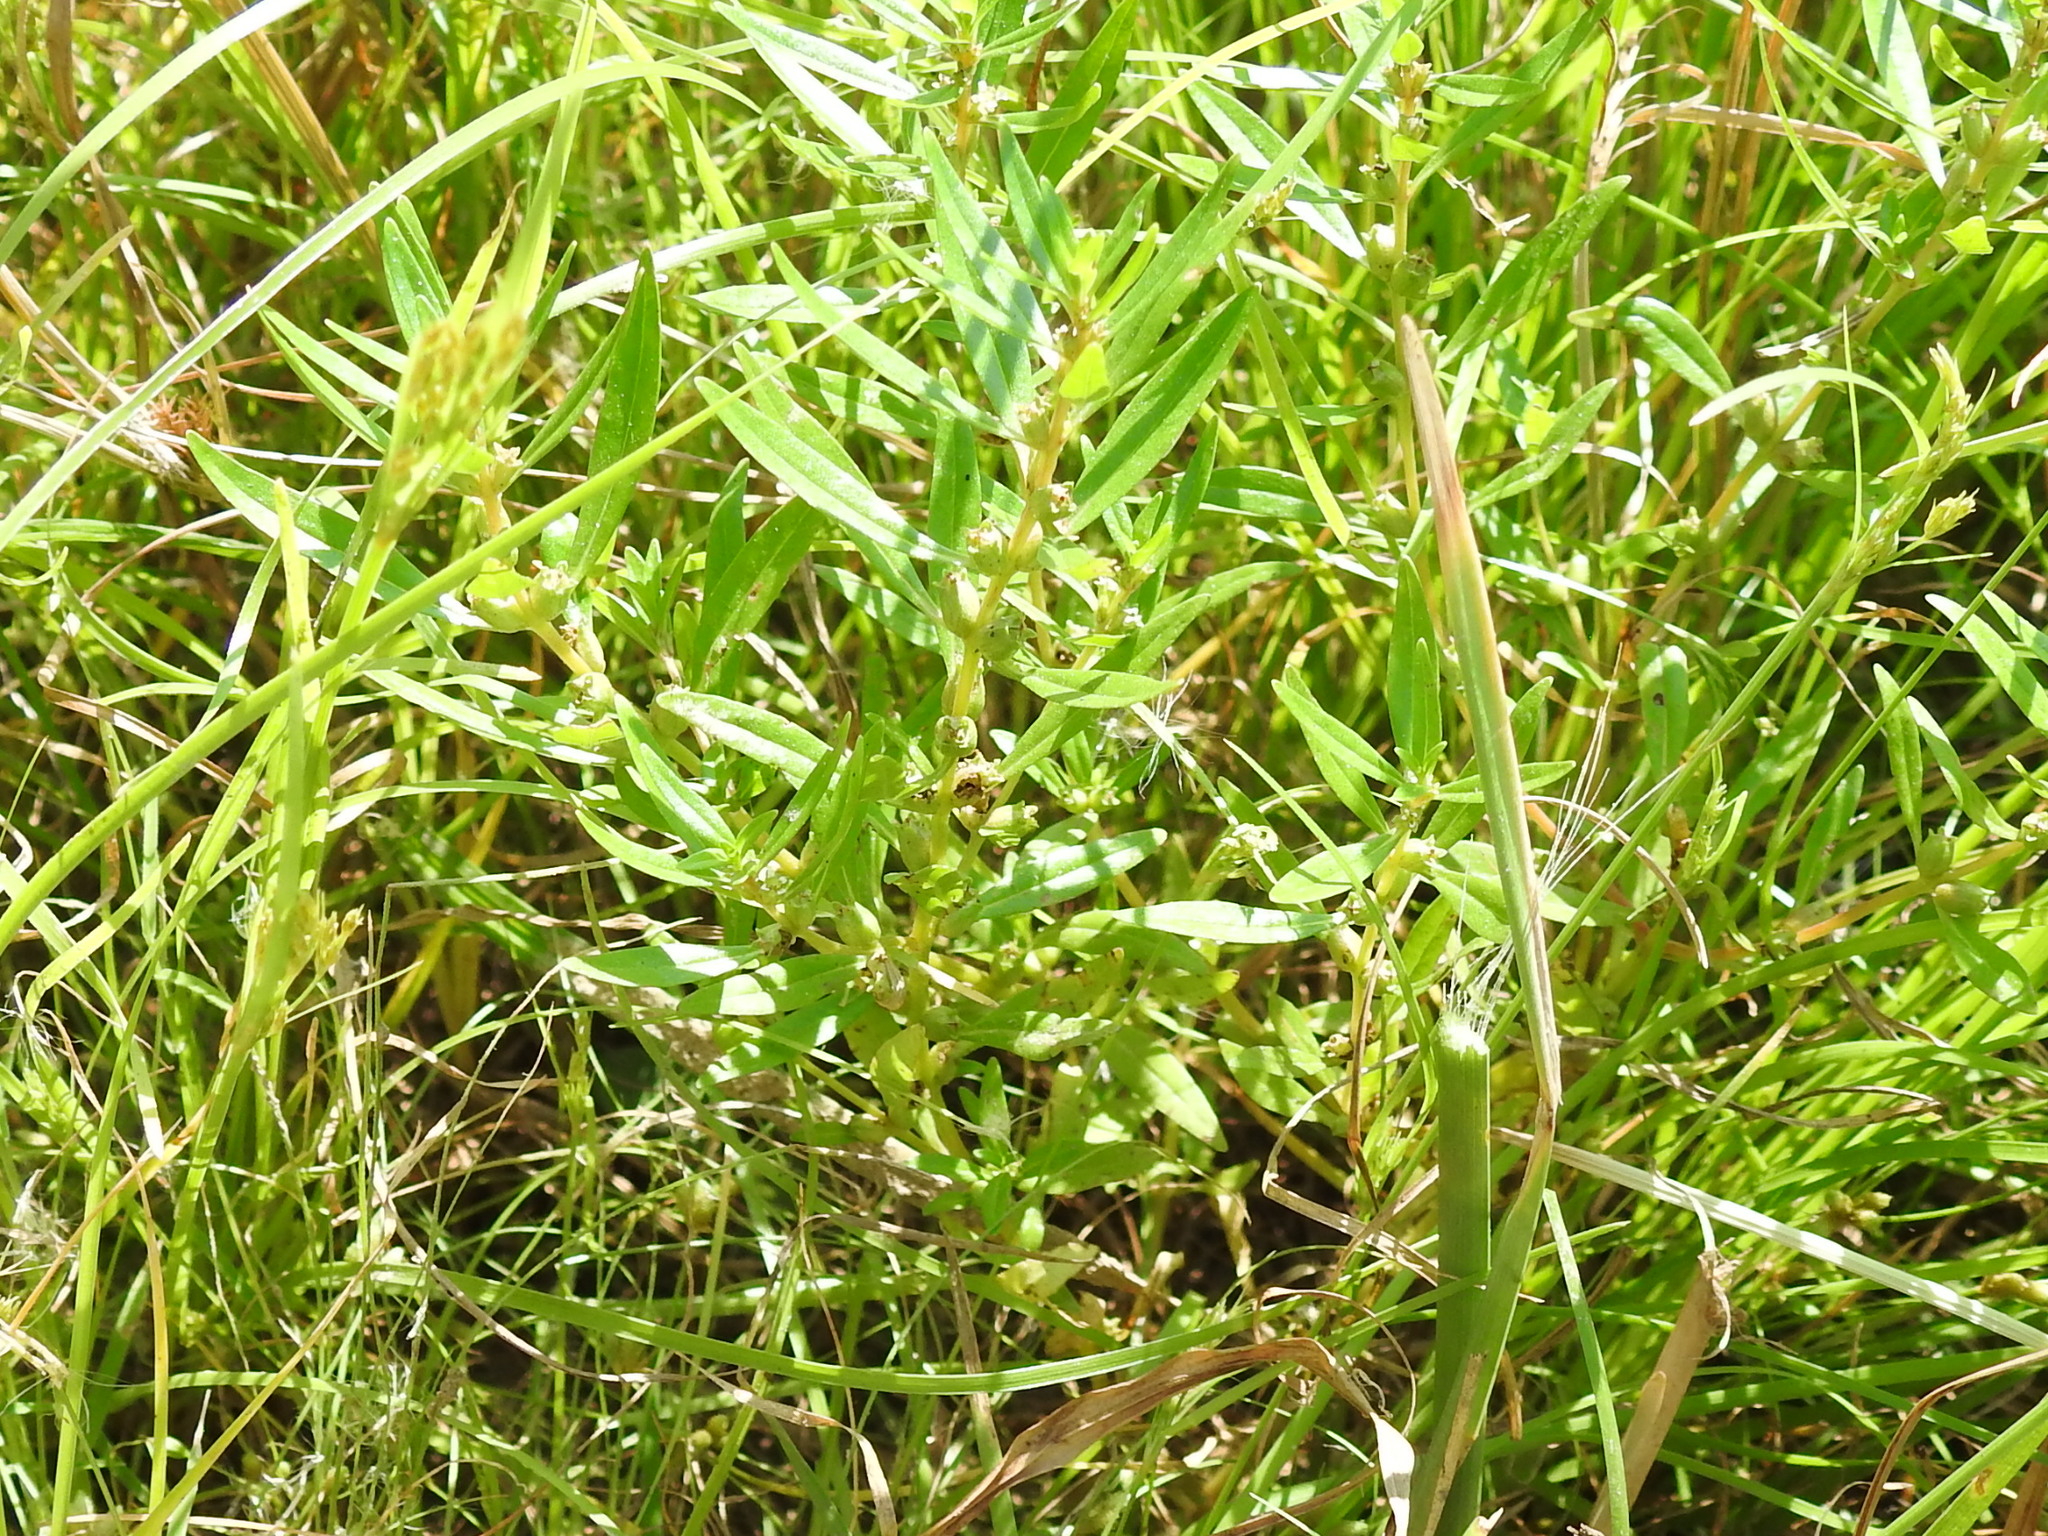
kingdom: Plantae
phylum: Tracheophyta
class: Magnoliopsida
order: Myrtales
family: Lythraceae
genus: Rotala
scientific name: Rotala ramosior
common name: Lowland rotala
